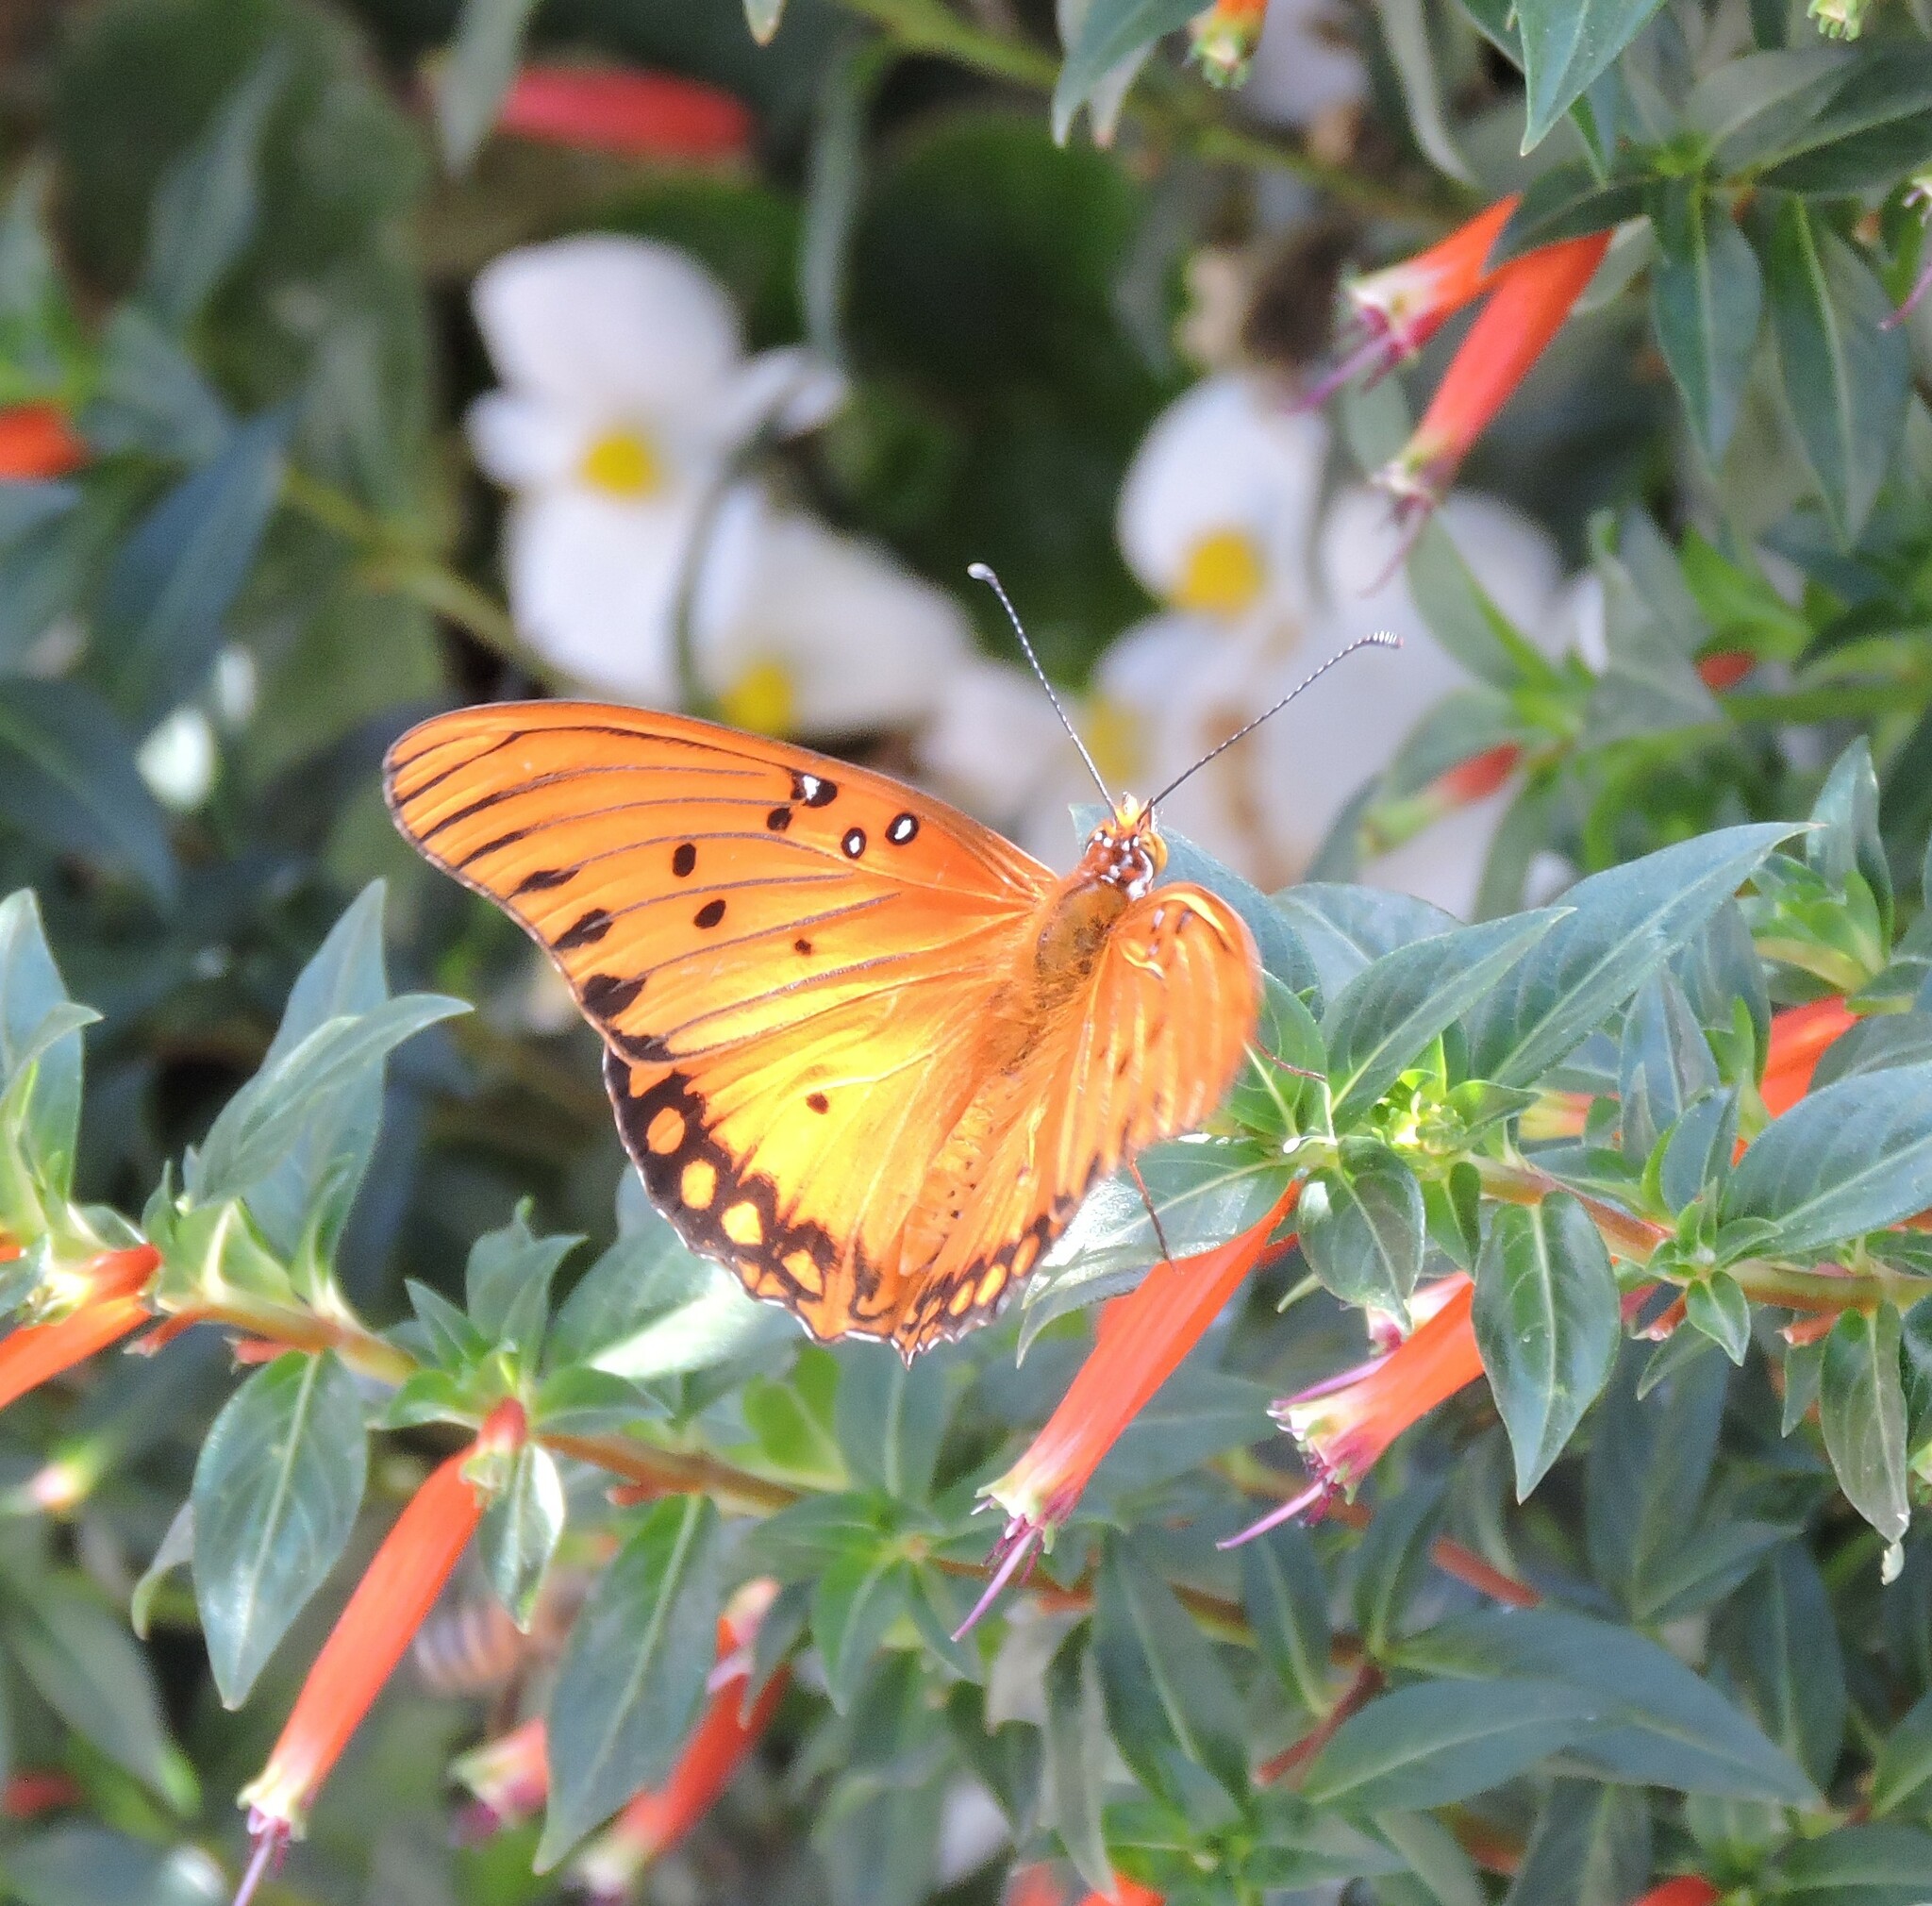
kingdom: Animalia
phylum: Arthropoda
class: Insecta
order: Lepidoptera
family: Nymphalidae
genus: Dione
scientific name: Dione vanillae
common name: Gulf fritillary
